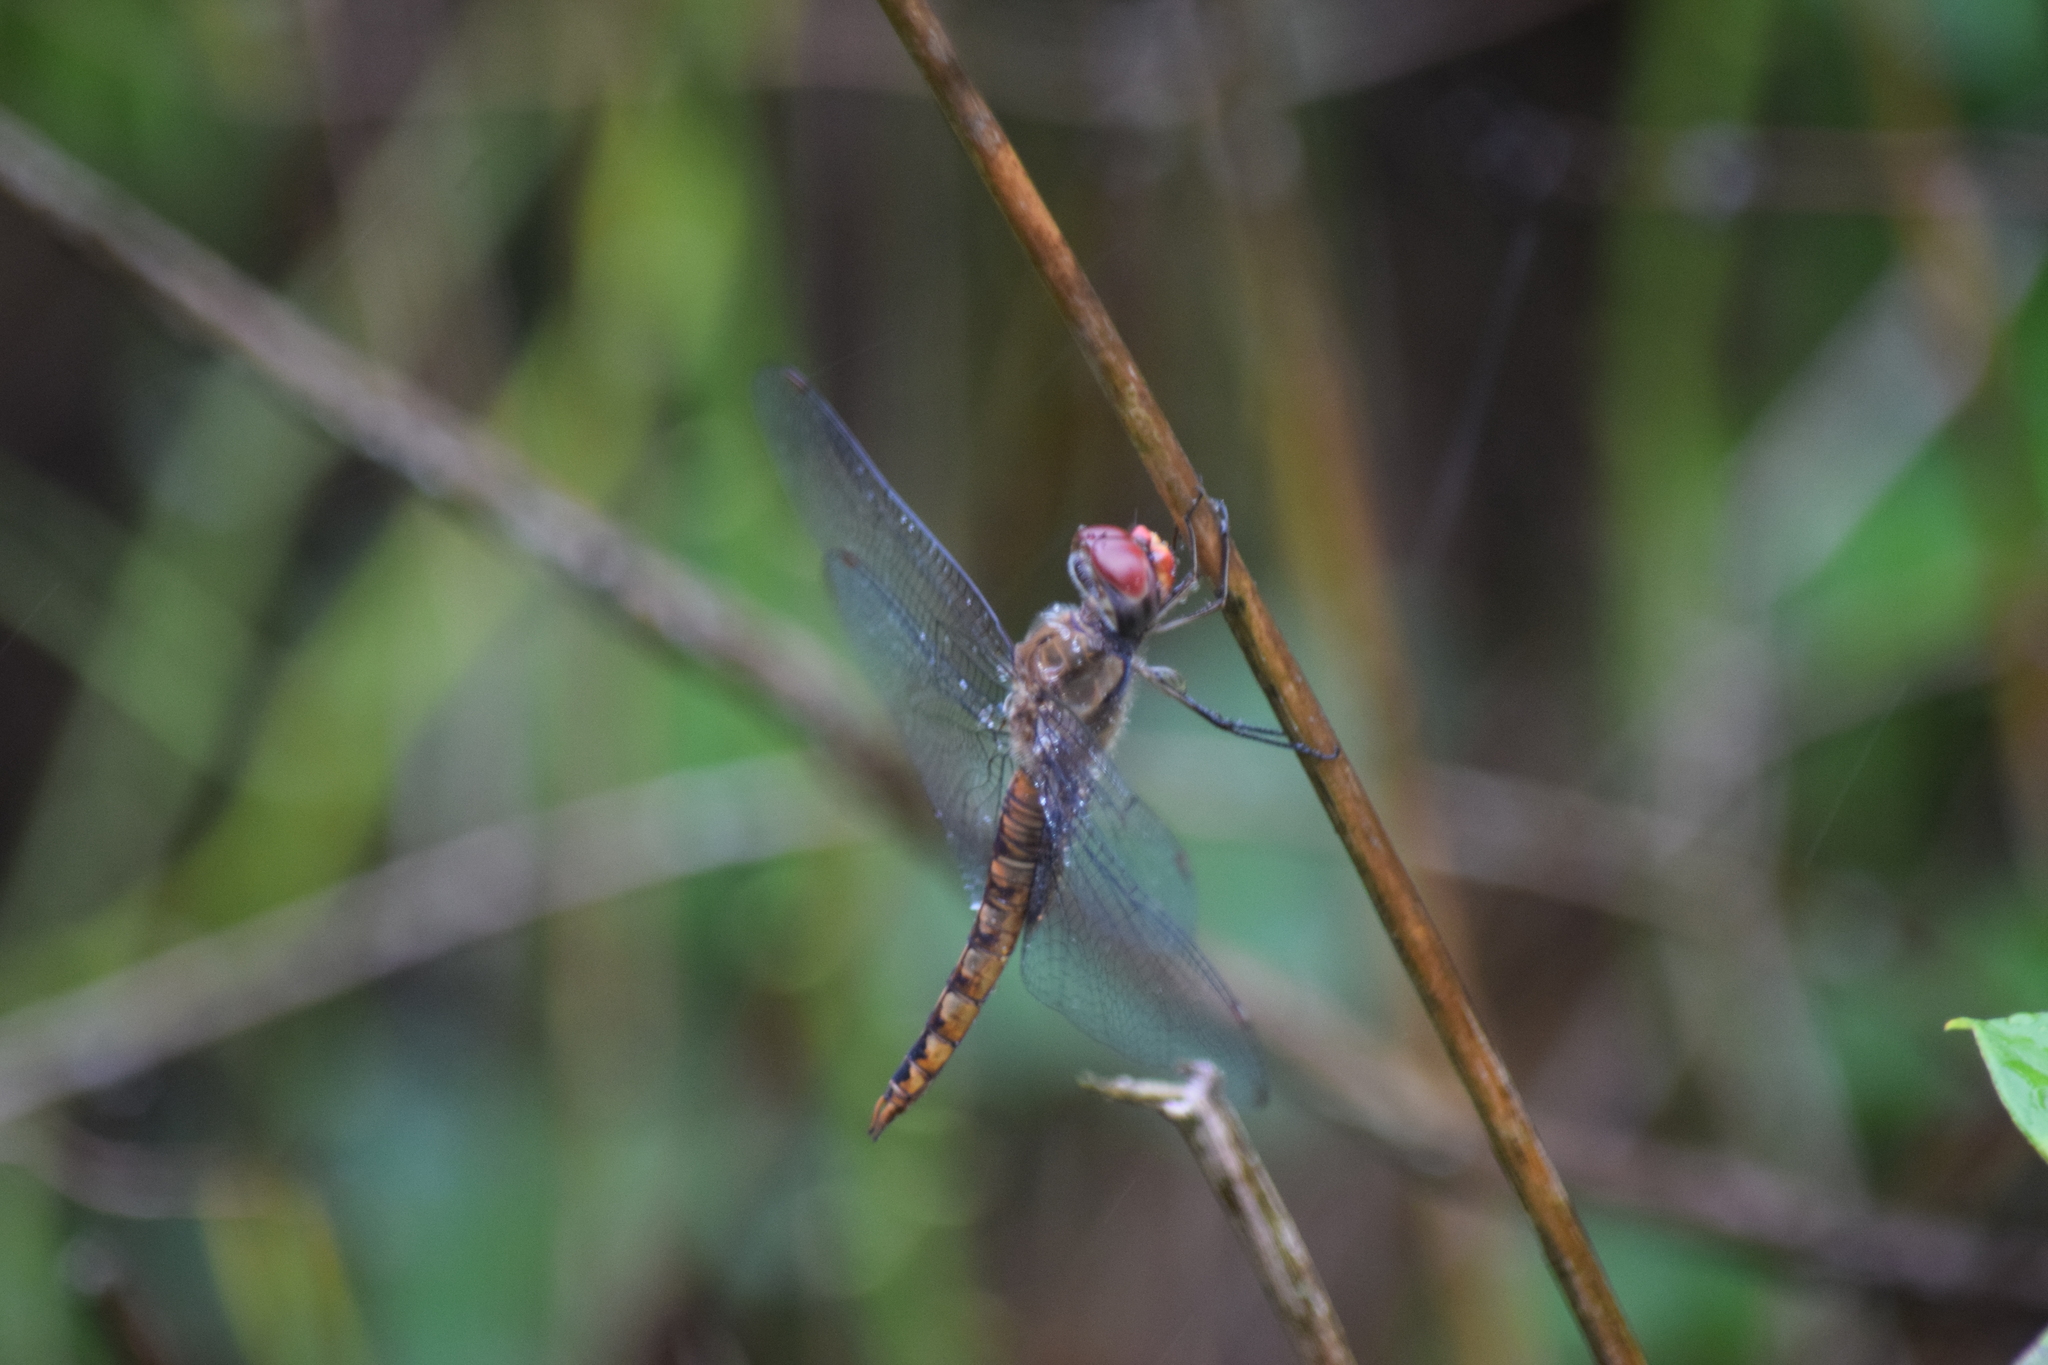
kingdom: Animalia
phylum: Arthropoda
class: Insecta
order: Odonata
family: Libellulidae
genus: Pantala
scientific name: Pantala hymenaea
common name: Spot-winged glider
